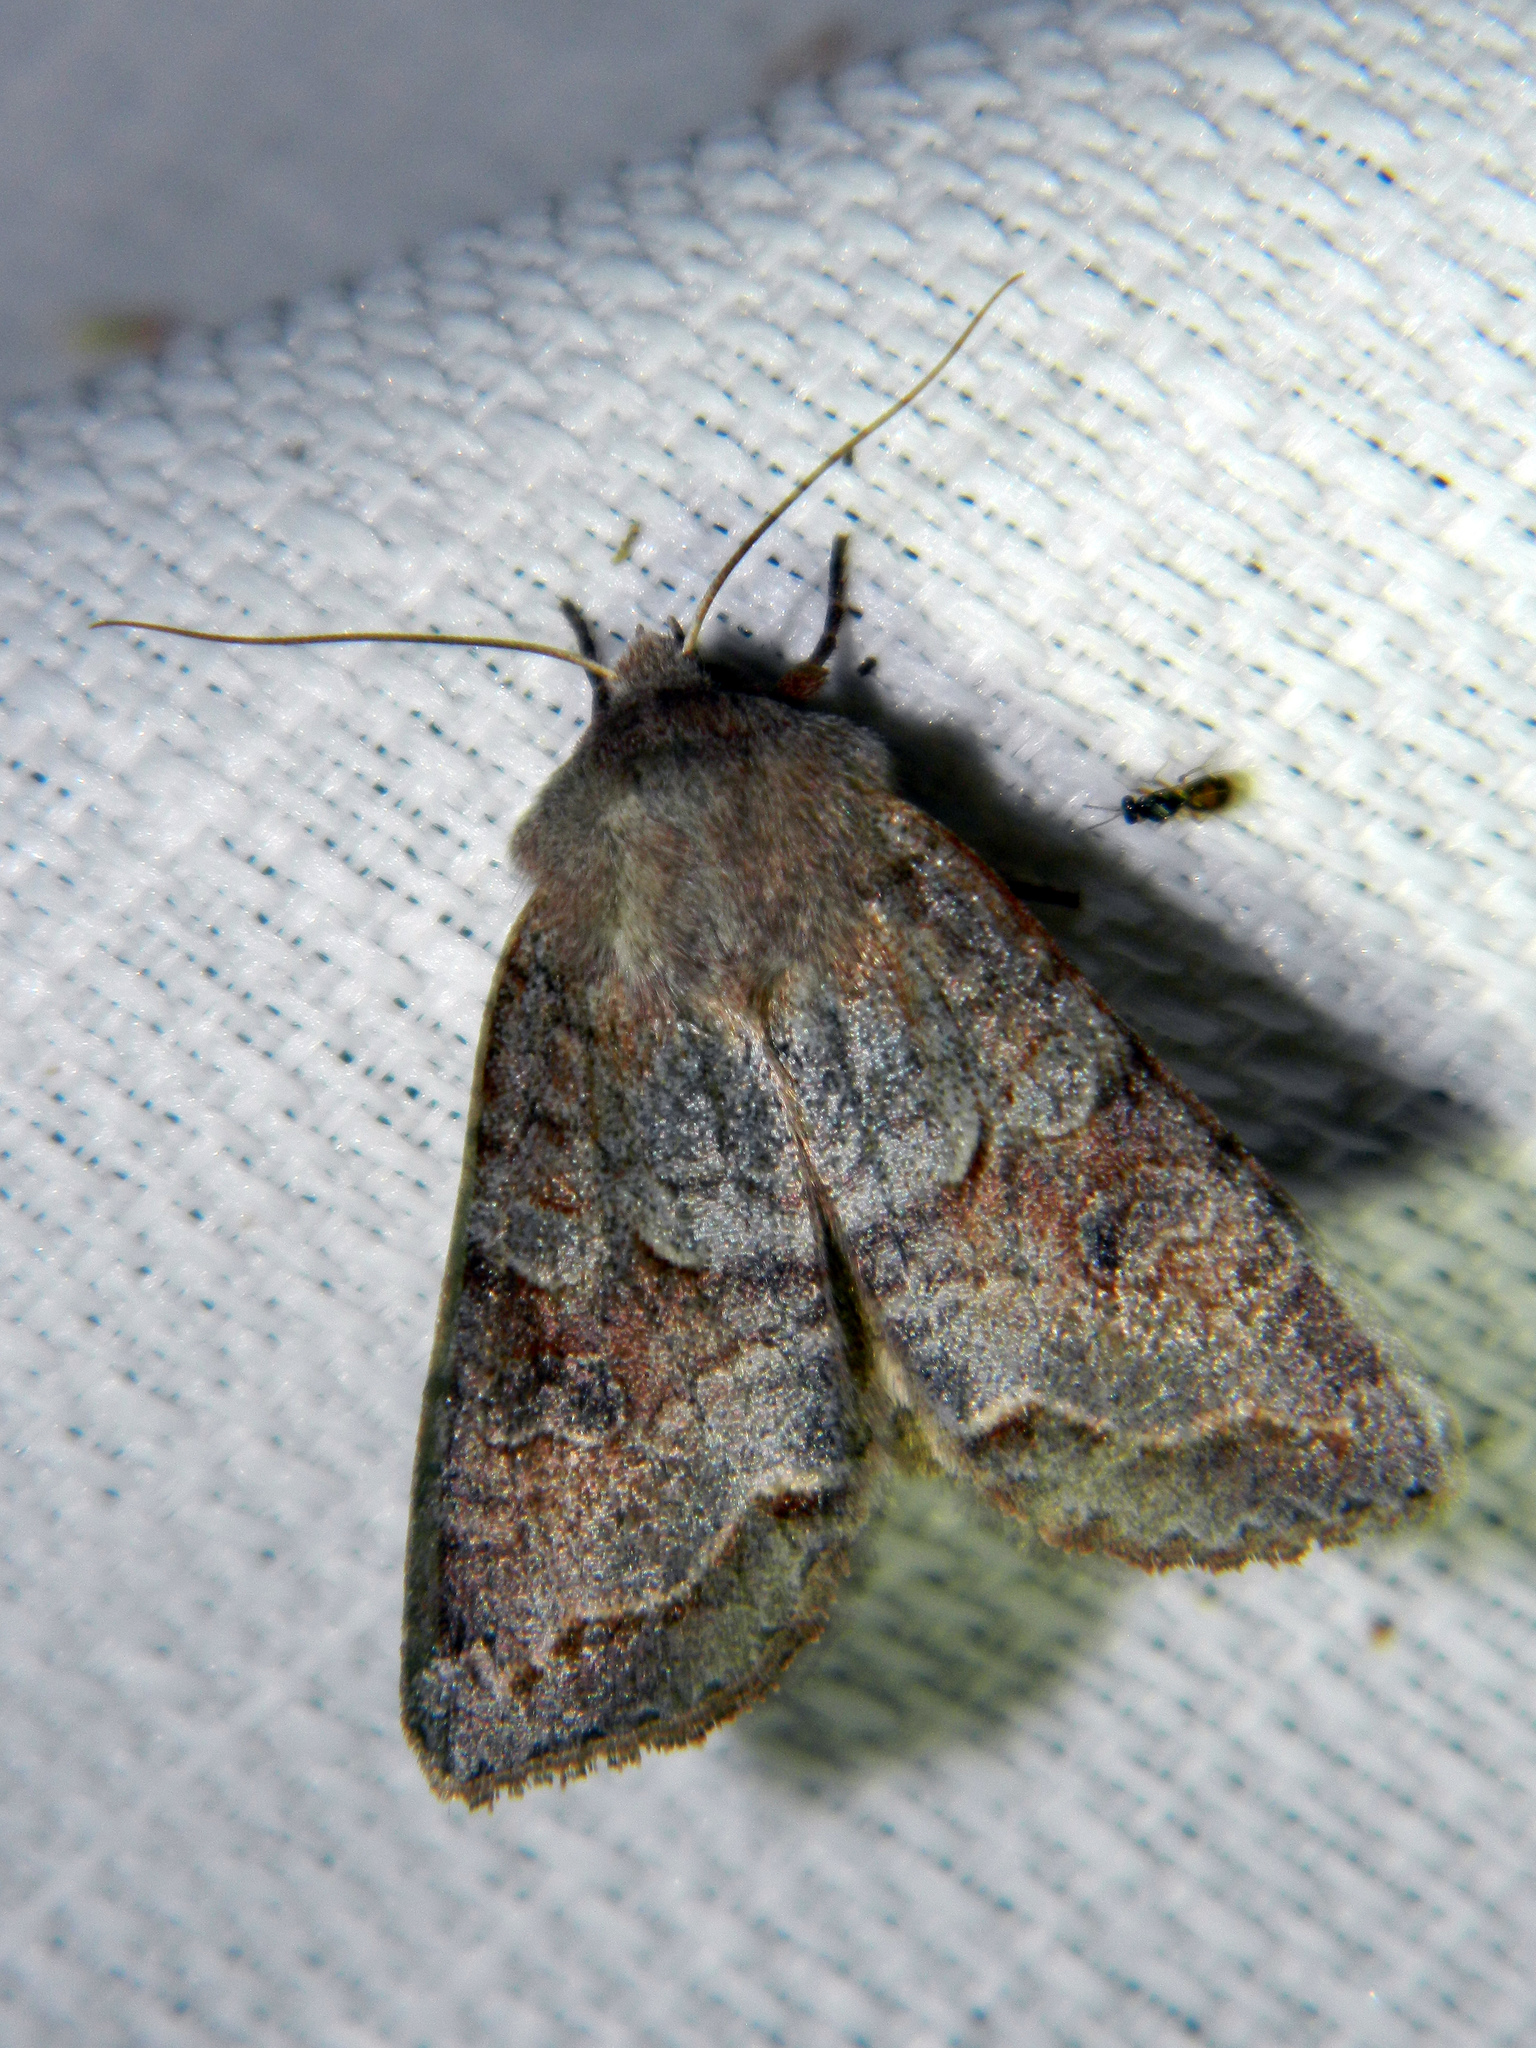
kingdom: Animalia
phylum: Arthropoda
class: Insecta
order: Lepidoptera
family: Noctuidae
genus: Orthosia
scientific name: Orthosia revicta
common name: Rusty whitesided caterpillar
